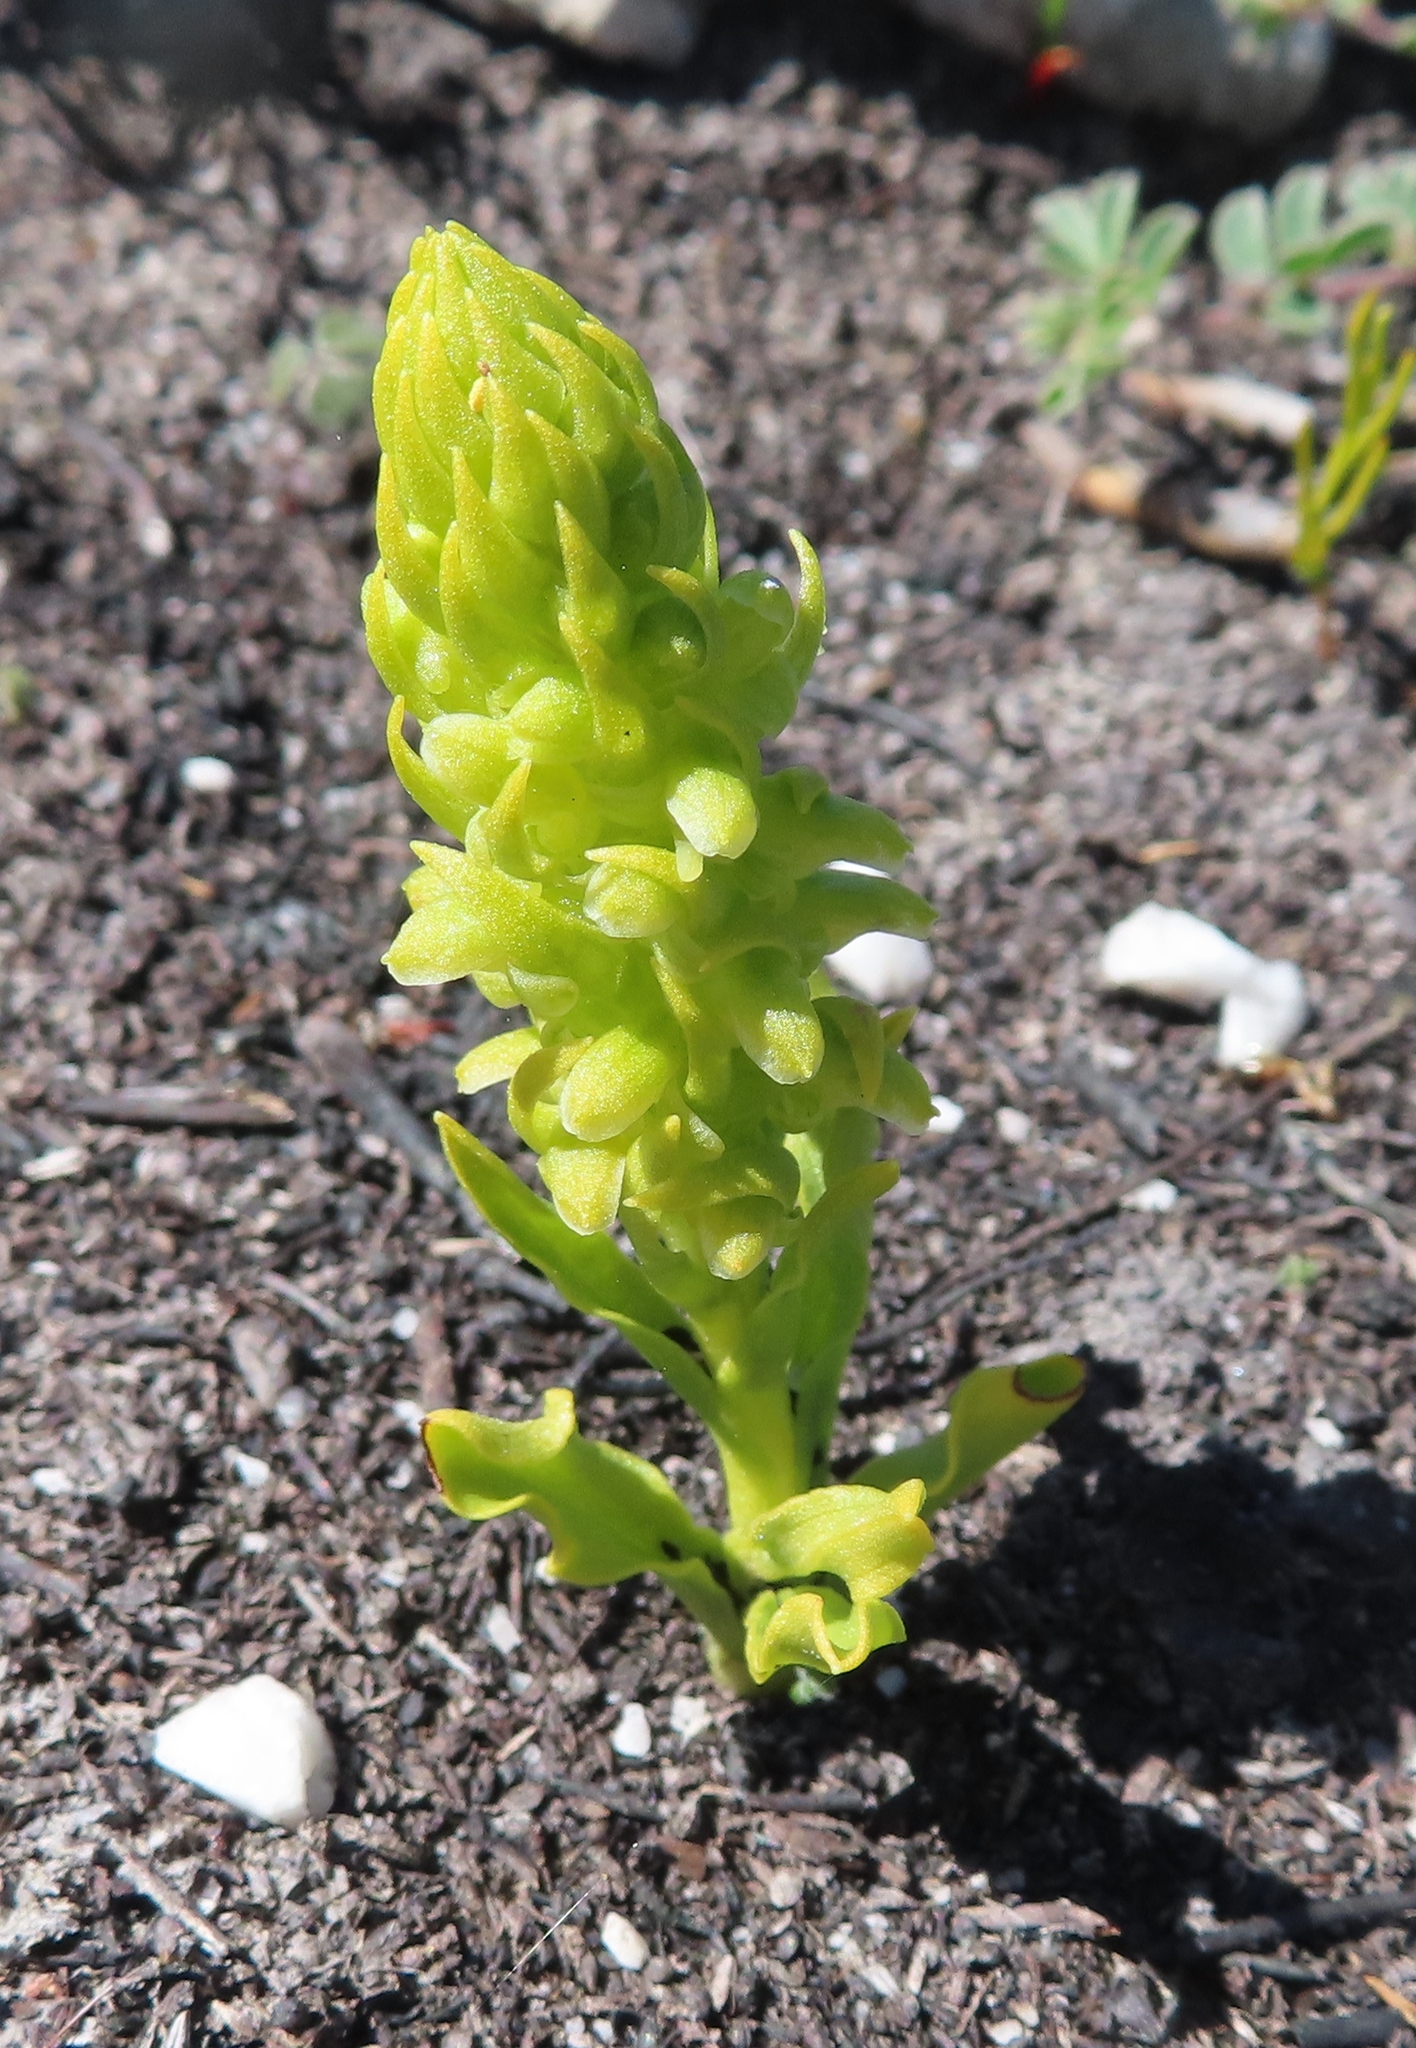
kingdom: Plantae
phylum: Tracheophyta
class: Liliopsida
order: Asparagales
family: Orchidaceae
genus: Disa
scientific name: Disa cylindrica
